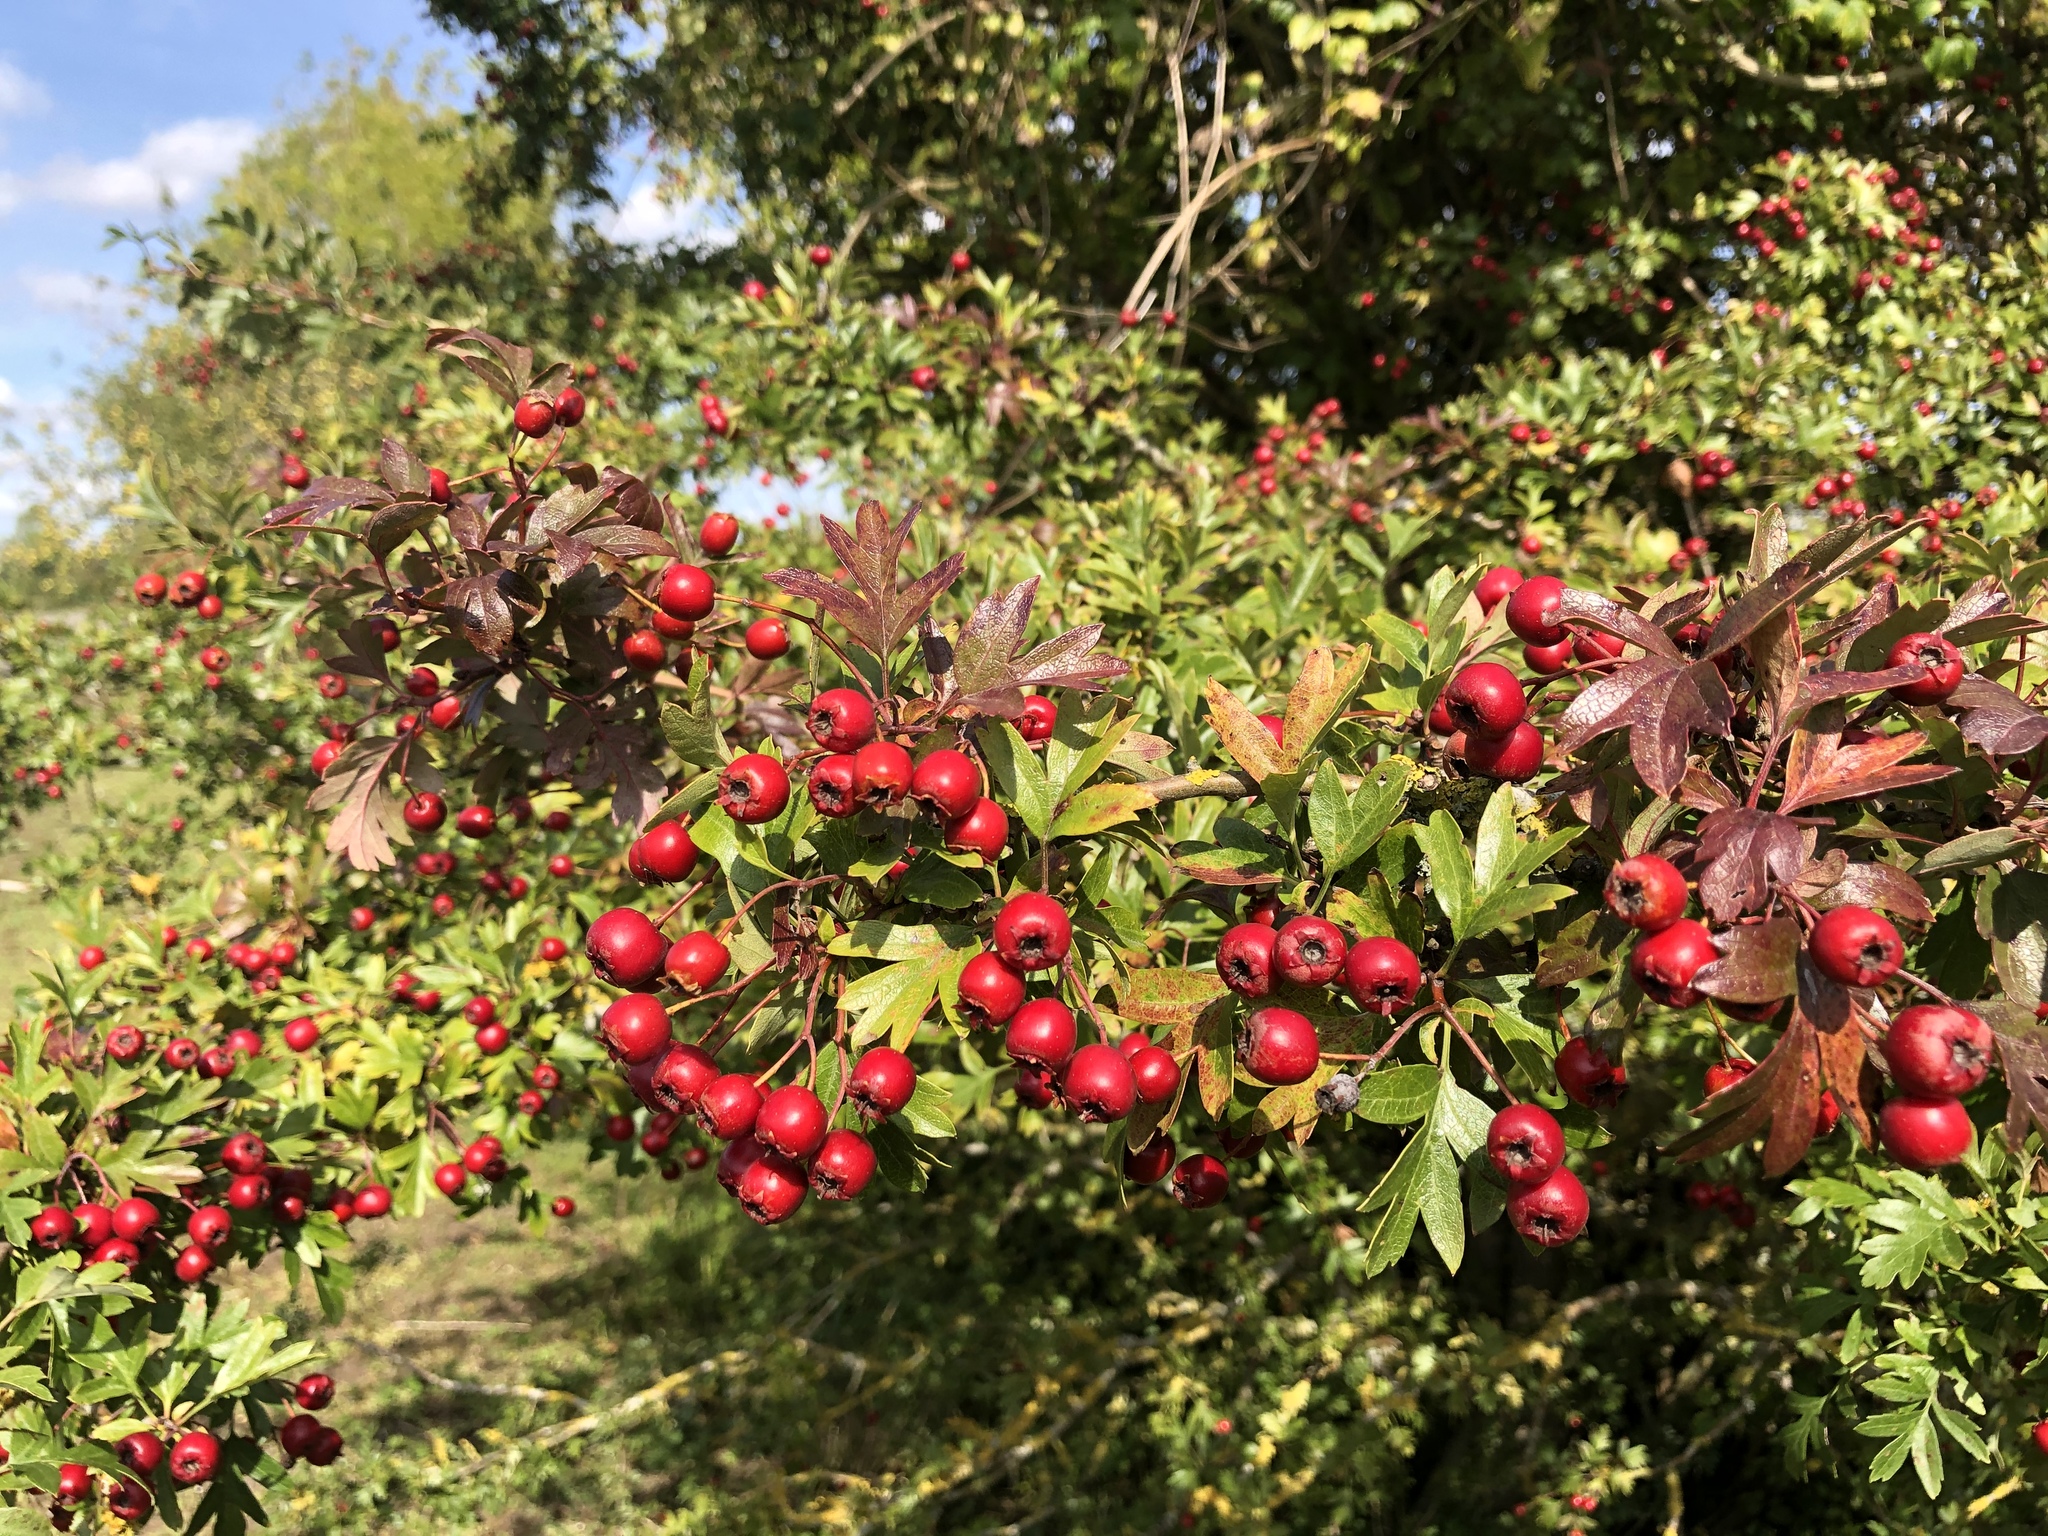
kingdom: Plantae
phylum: Tracheophyta
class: Magnoliopsida
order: Rosales
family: Rosaceae
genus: Crataegus
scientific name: Crataegus monogyna
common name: Hawthorn
